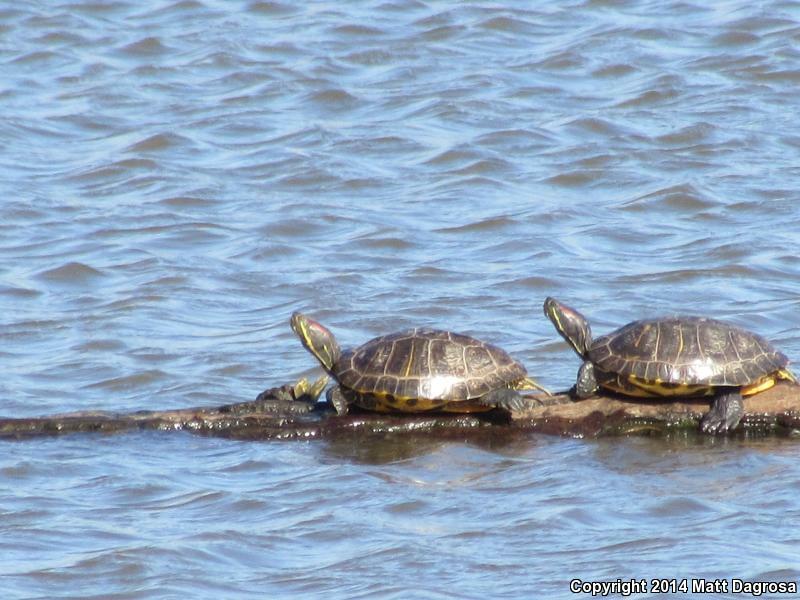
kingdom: Animalia
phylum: Chordata
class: Testudines
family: Emydidae
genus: Trachemys
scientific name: Trachemys scripta
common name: Slider
